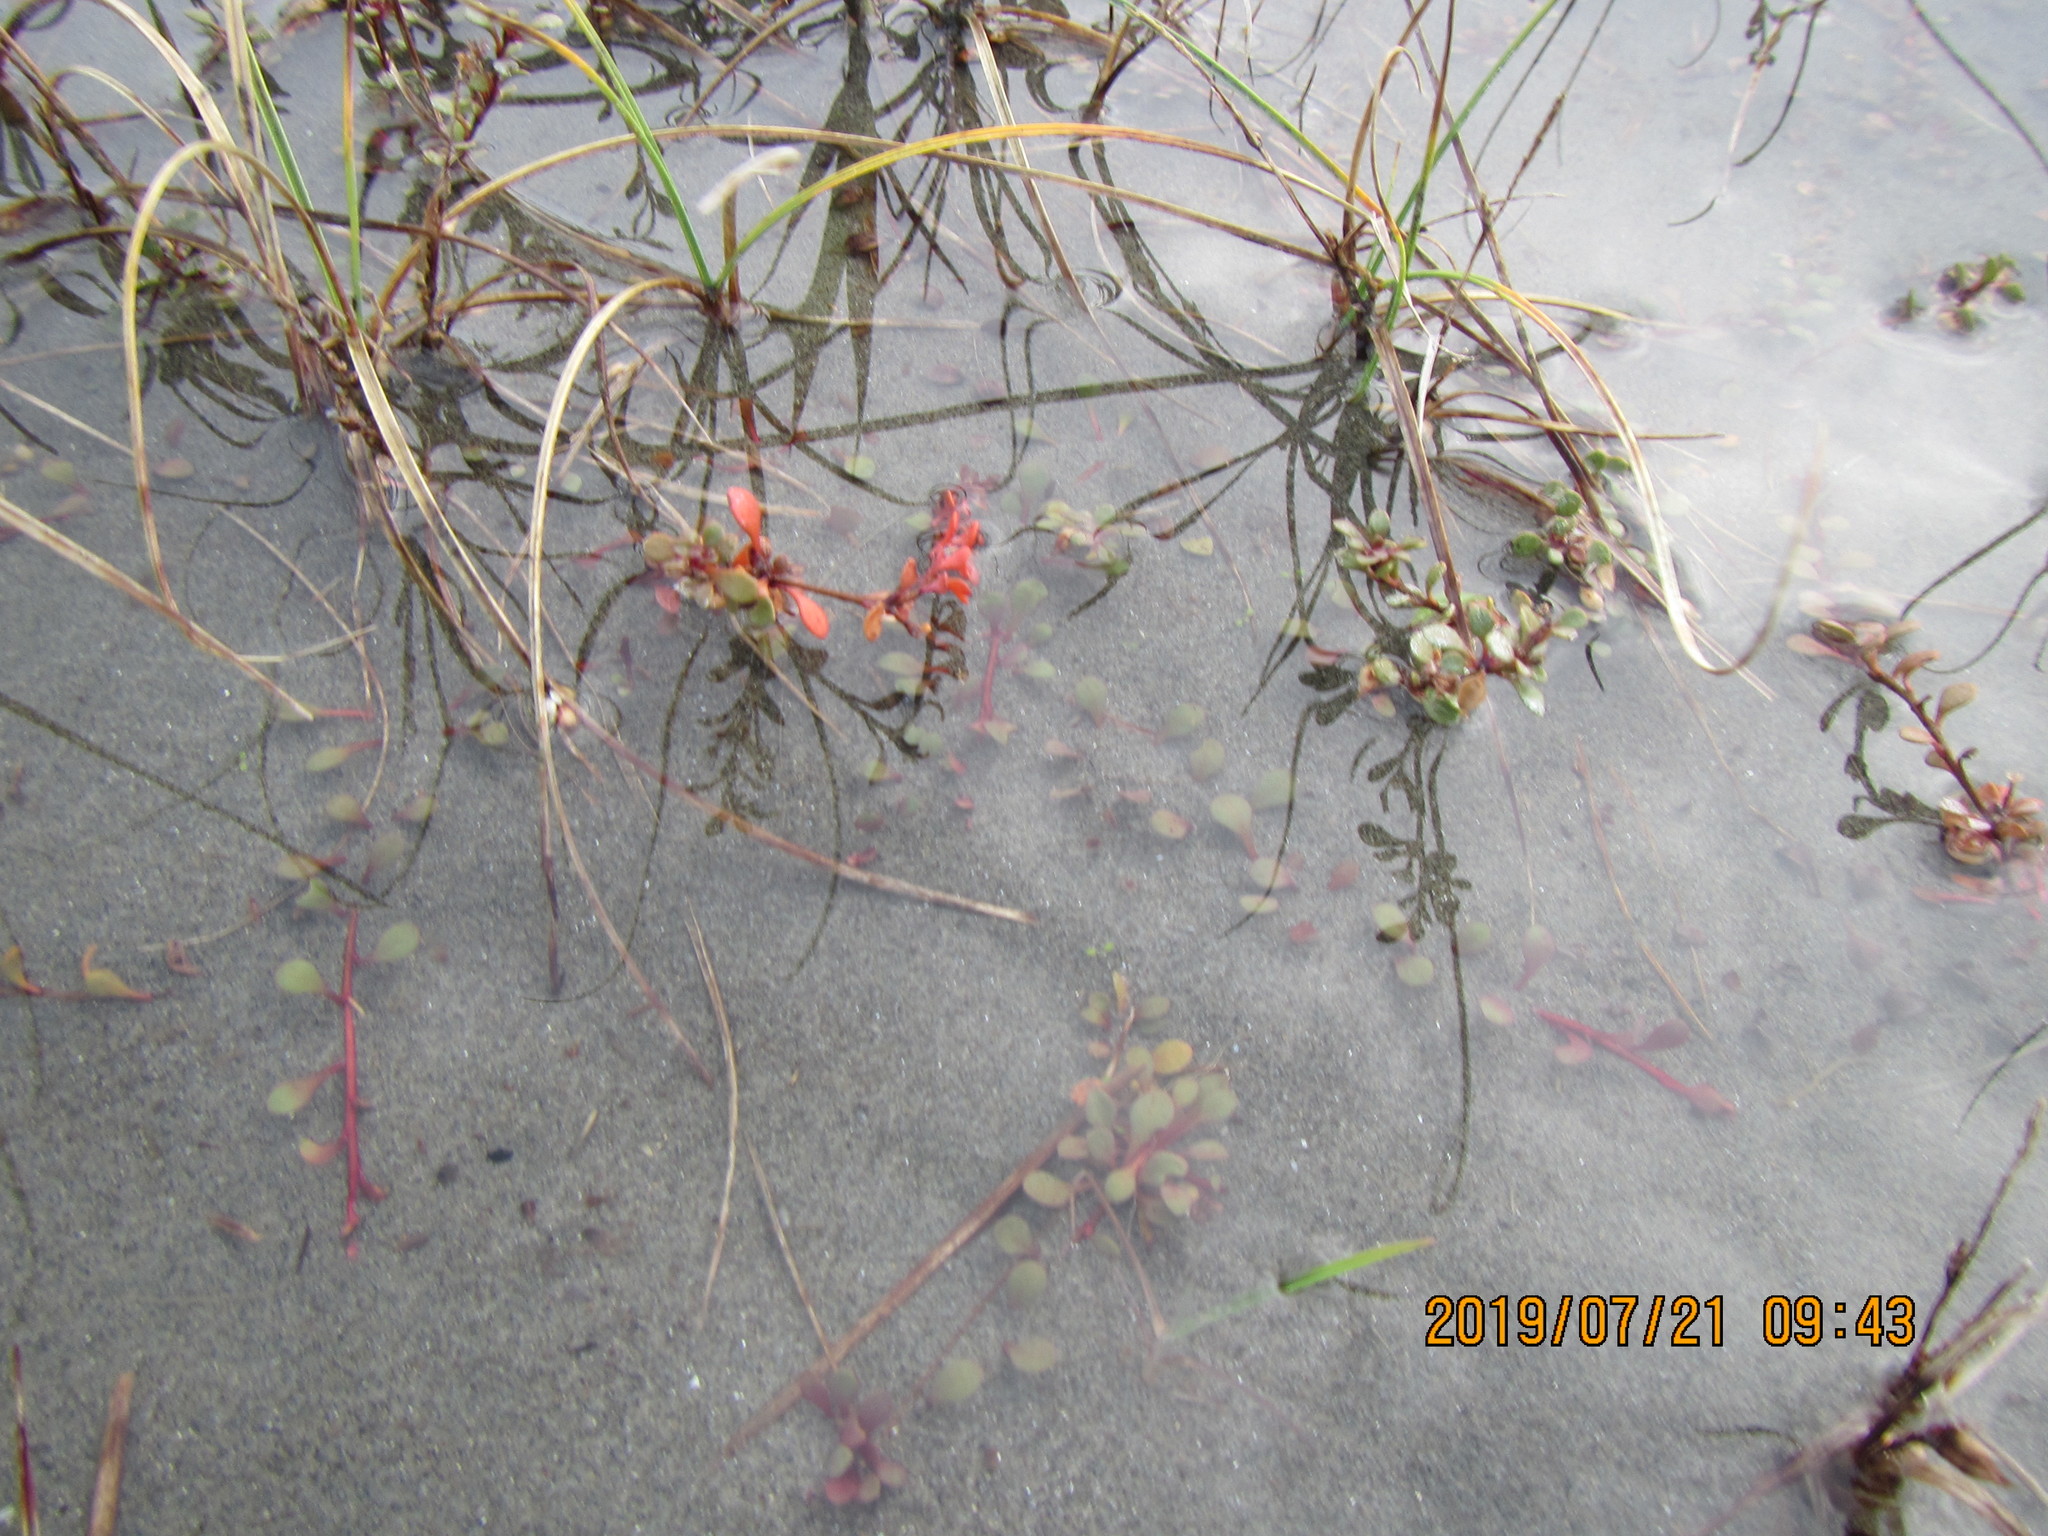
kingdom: Plantae
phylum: Tracheophyta
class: Magnoliopsida
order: Ericales
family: Primulaceae
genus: Samolus
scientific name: Samolus repens
